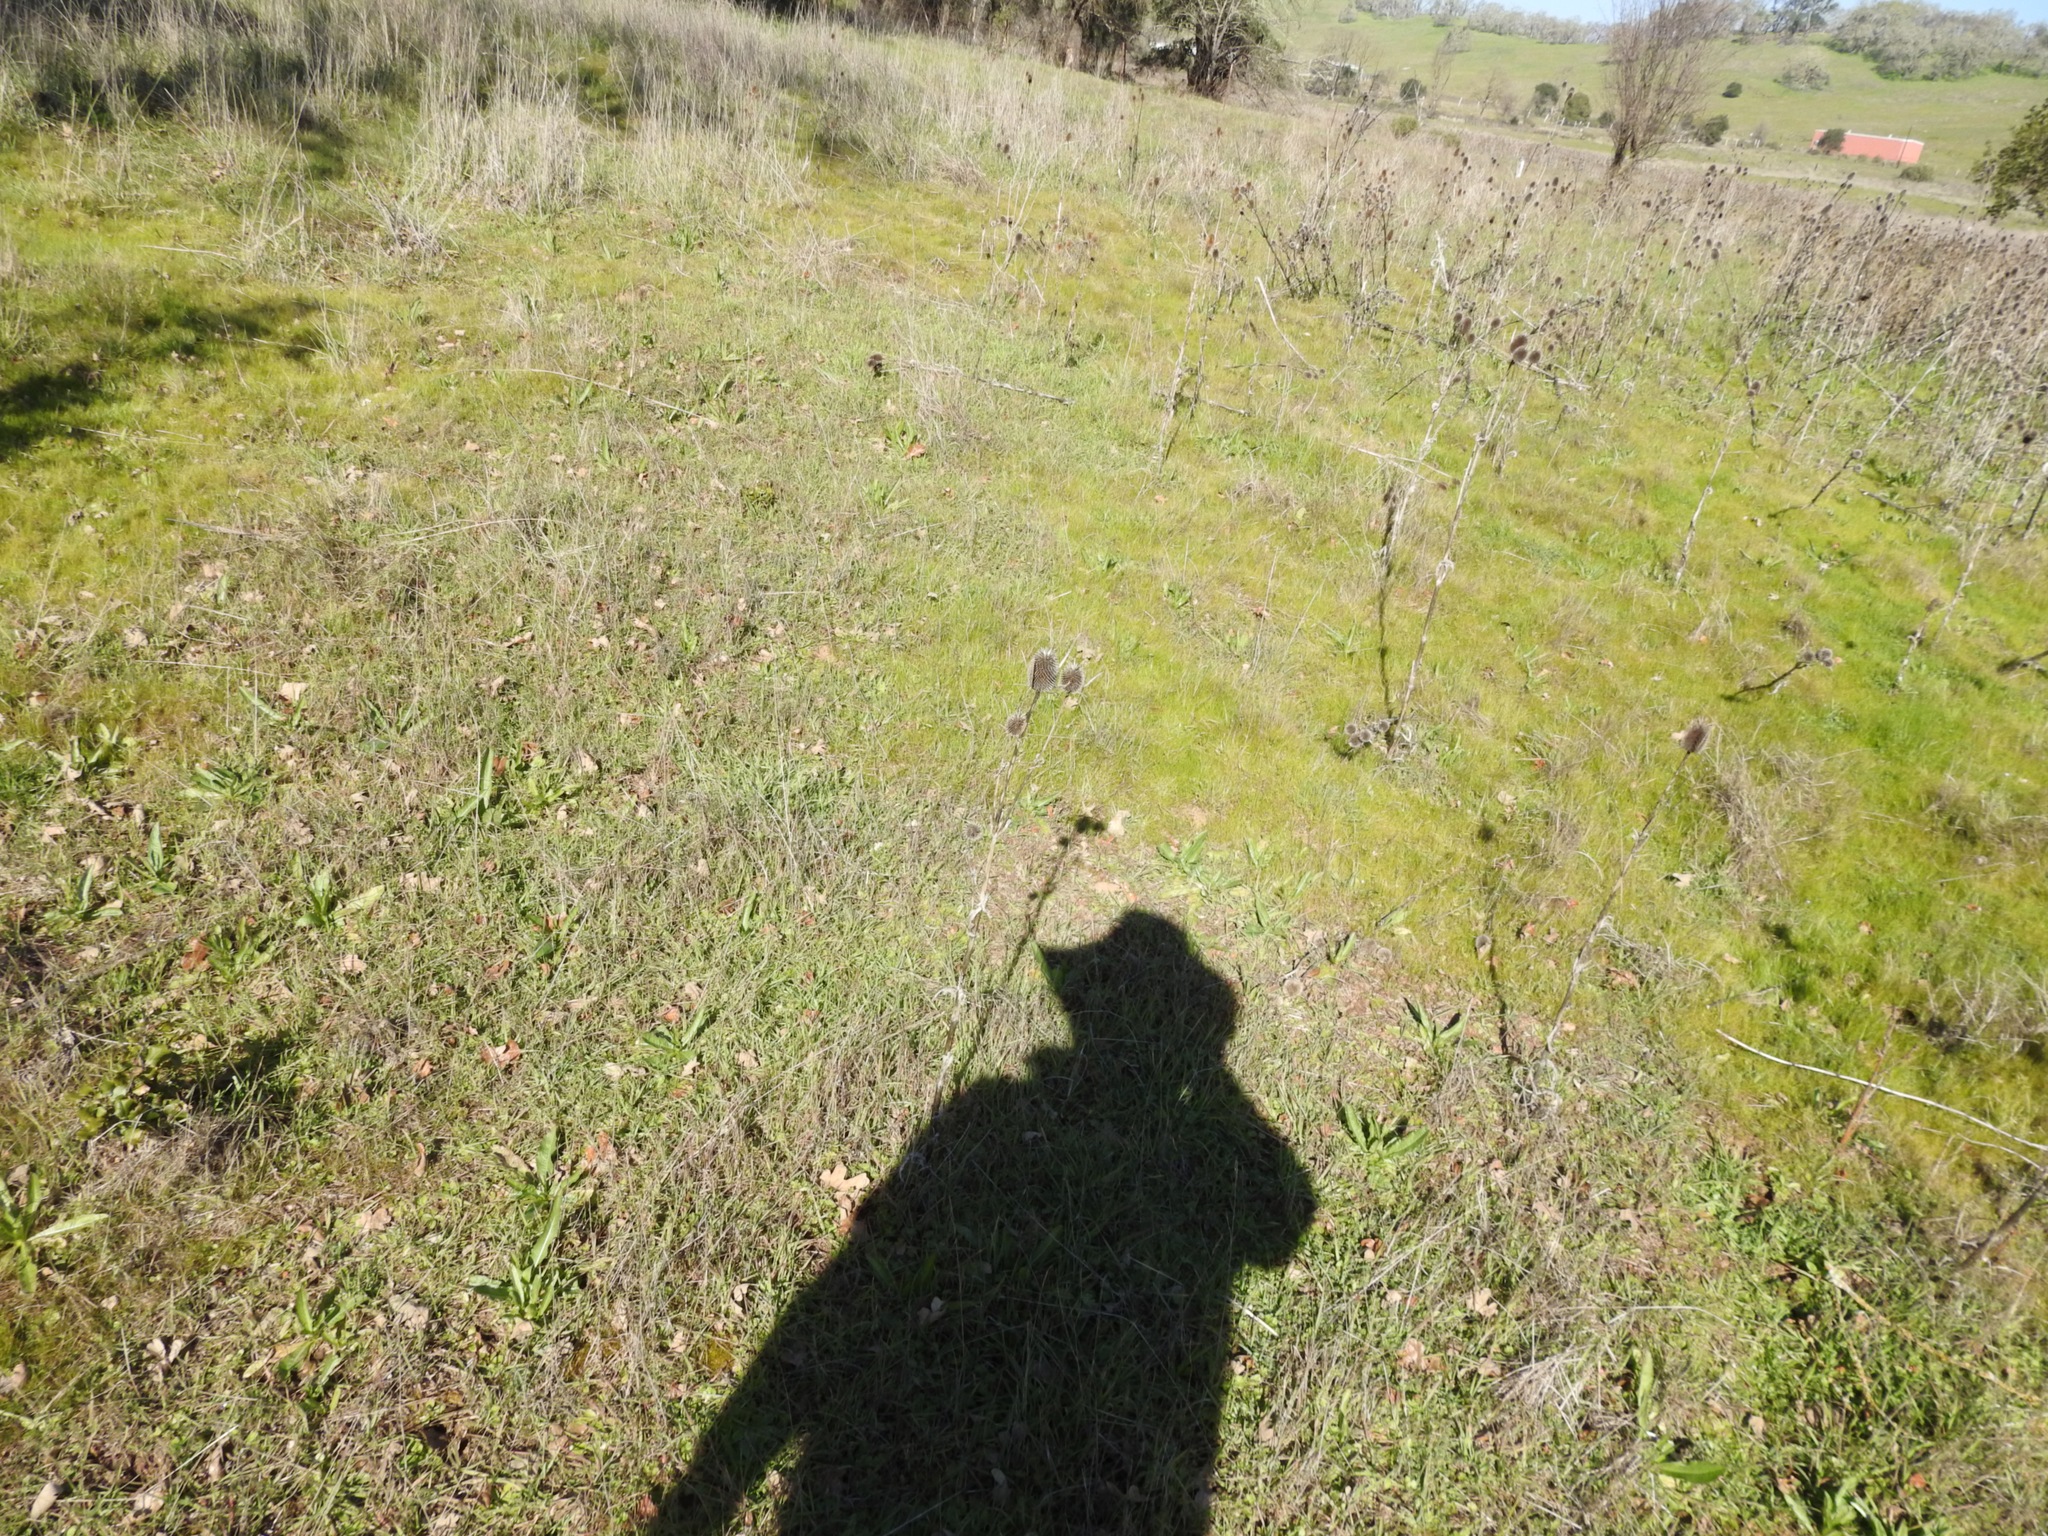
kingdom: Plantae
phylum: Tracheophyta
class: Magnoliopsida
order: Dipsacales
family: Caprifoliaceae
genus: Dipsacus
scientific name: Dipsacus sativus
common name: Fuller's teasel
